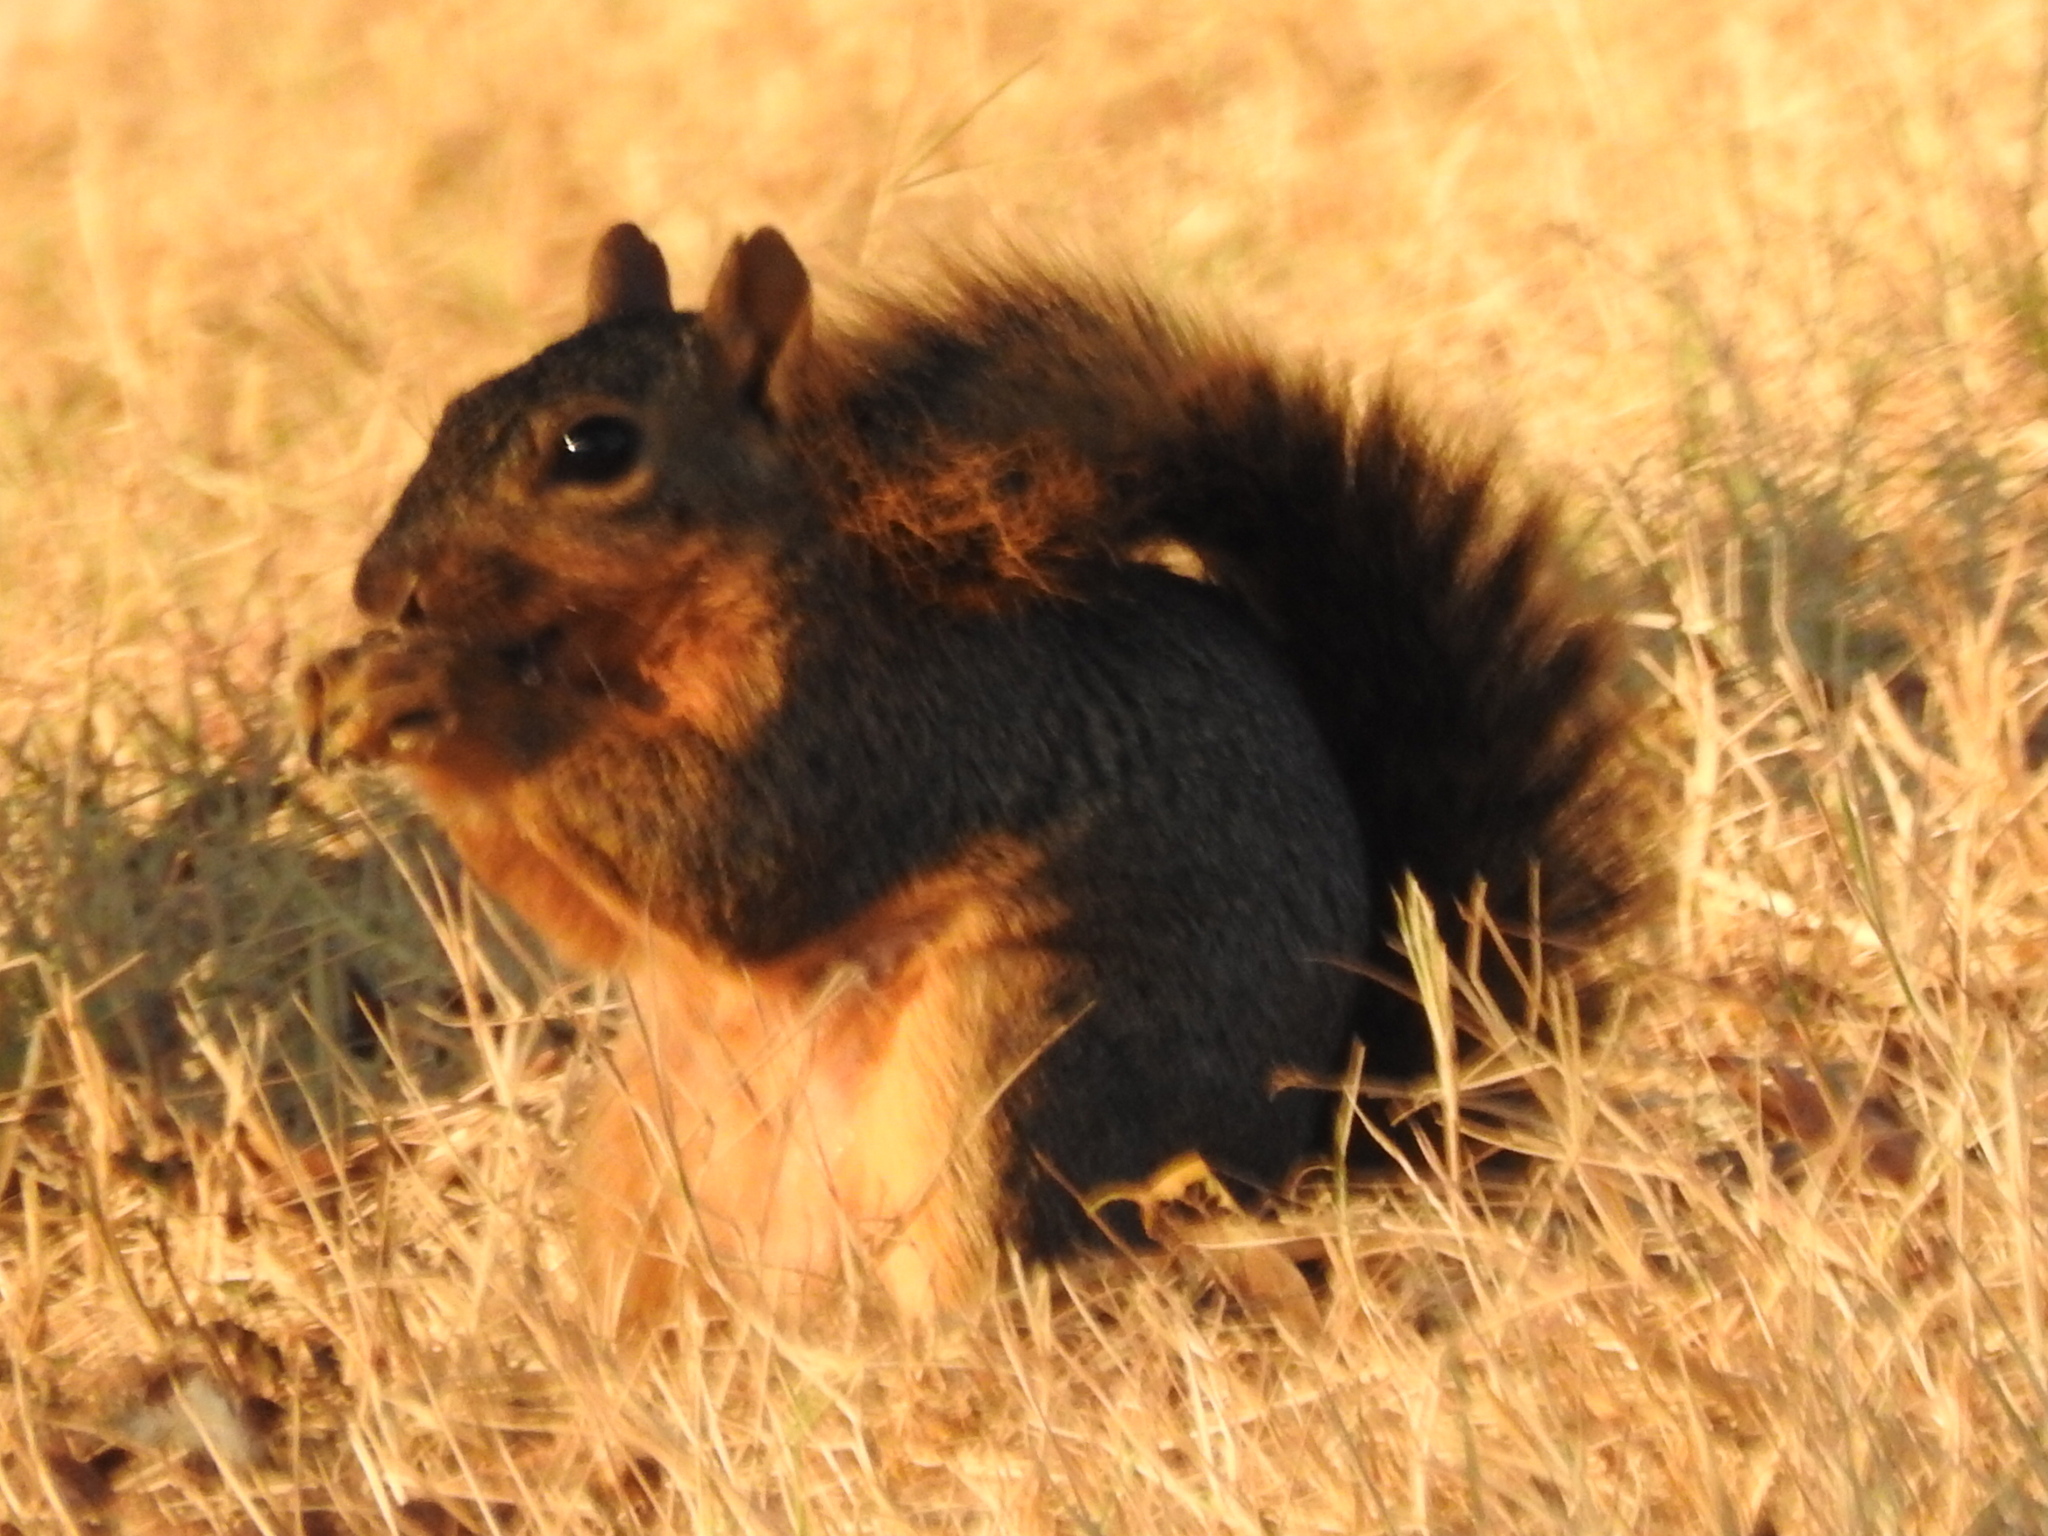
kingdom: Animalia
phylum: Chordata
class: Mammalia
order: Rodentia
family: Sciuridae
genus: Sciurus
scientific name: Sciurus niger
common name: Fox squirrel
